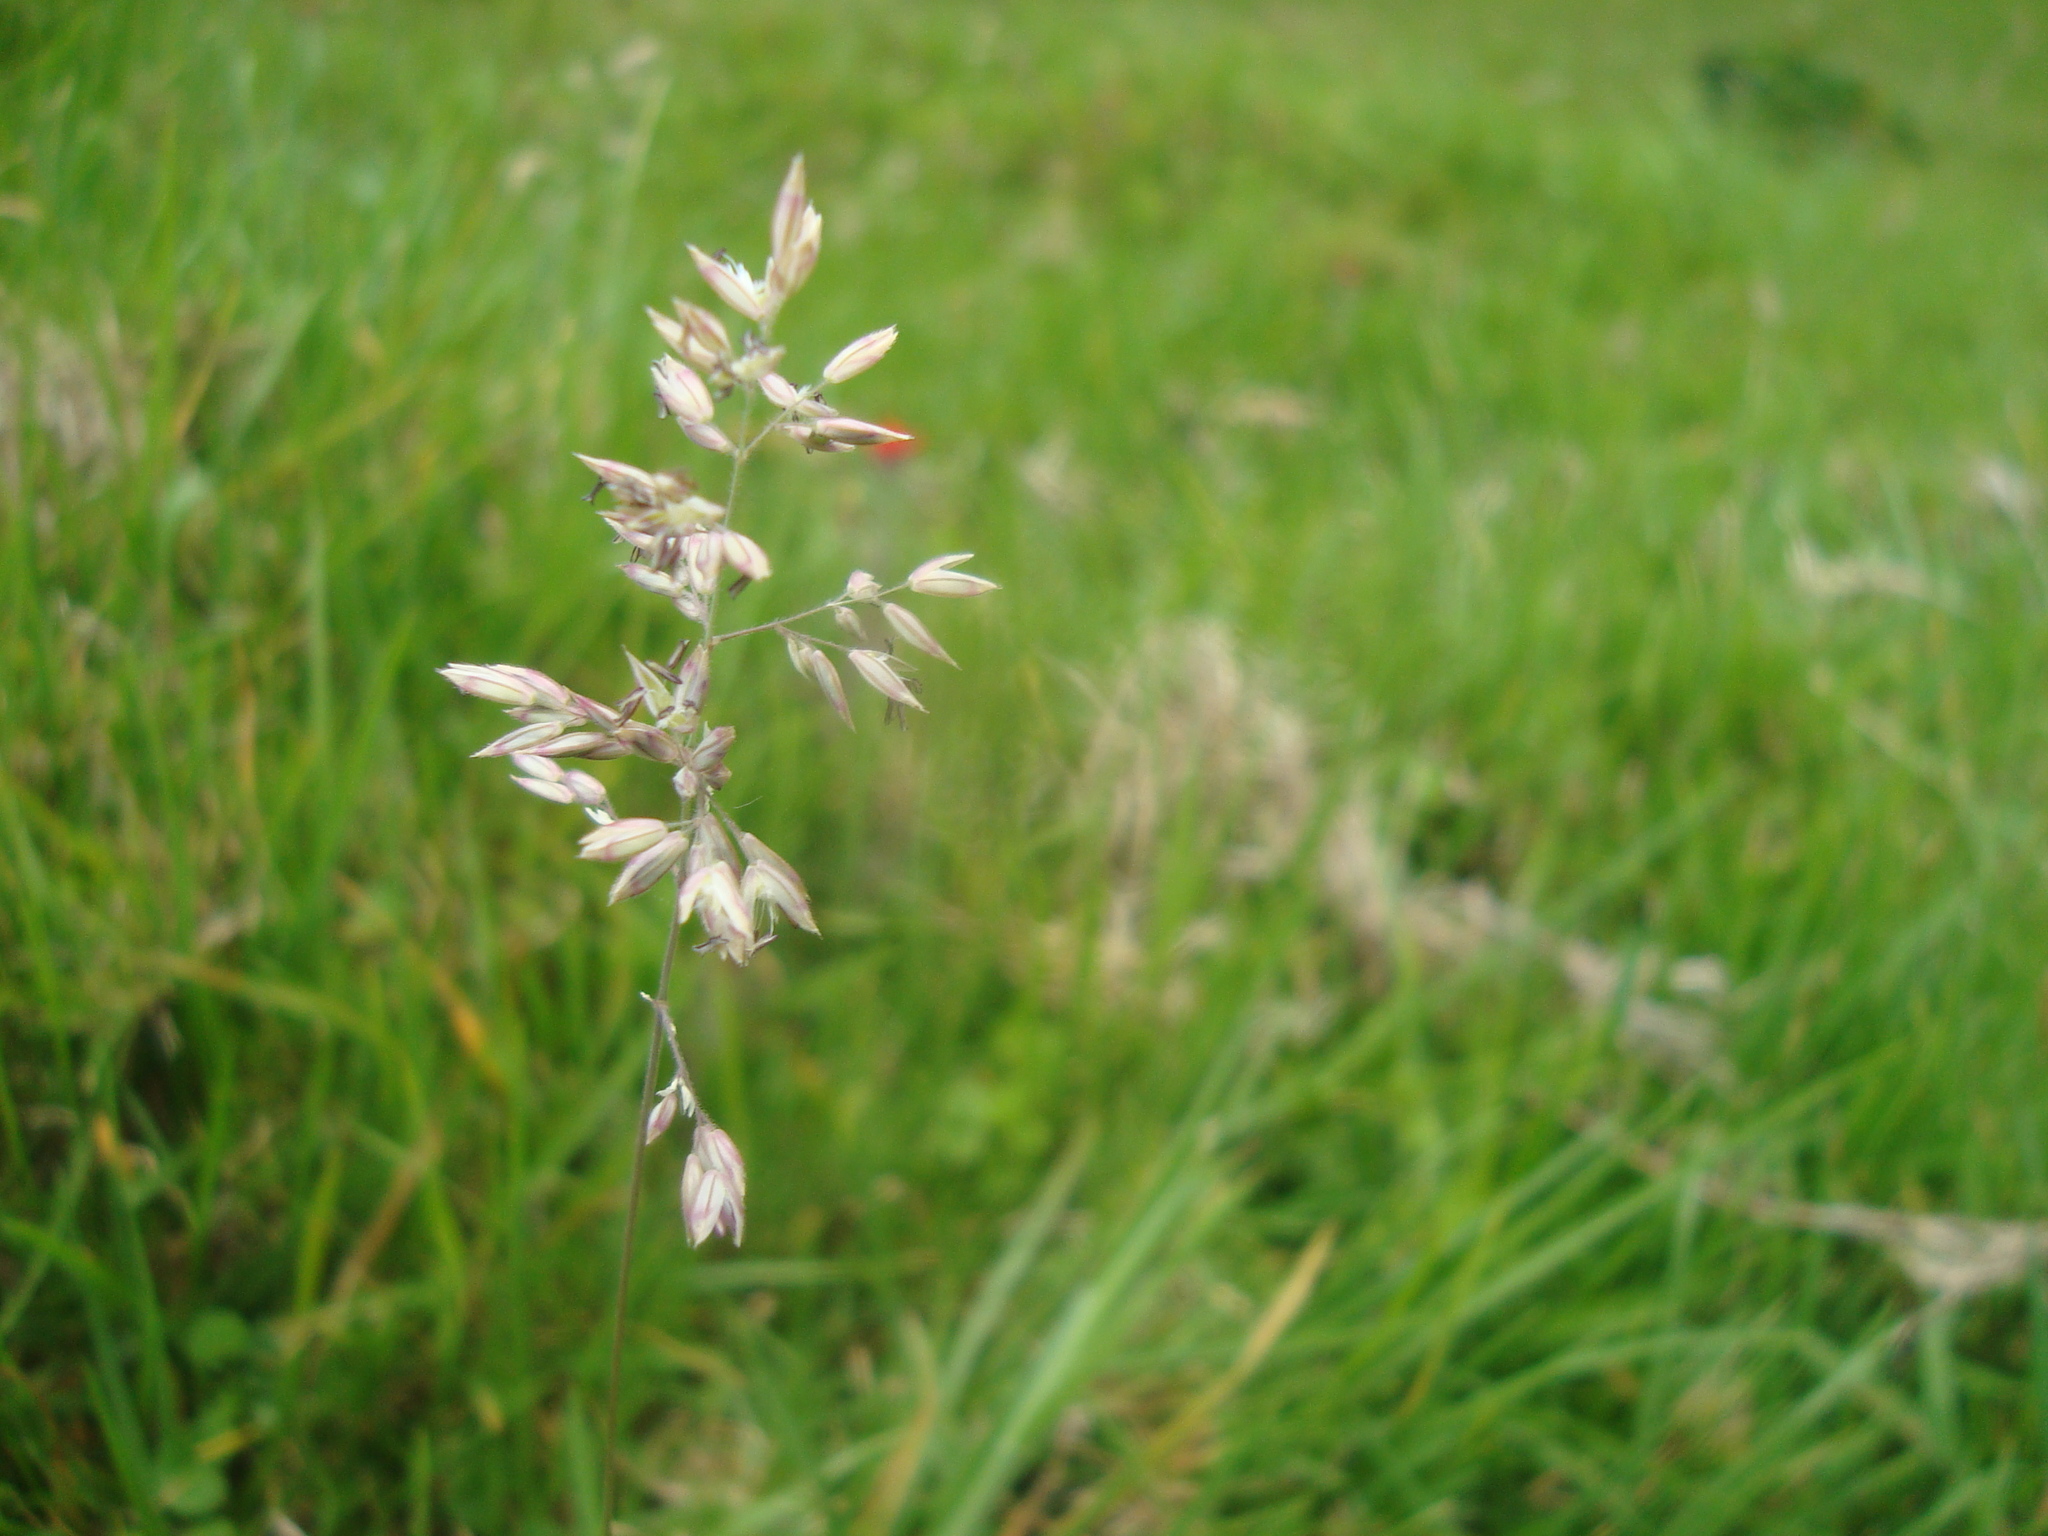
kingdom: Plantae
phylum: Tracheophyta
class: Liliopsida
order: Poales
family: Poaceae
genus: Holcus
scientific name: Holcus lanatus
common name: Yorkshire-fog
